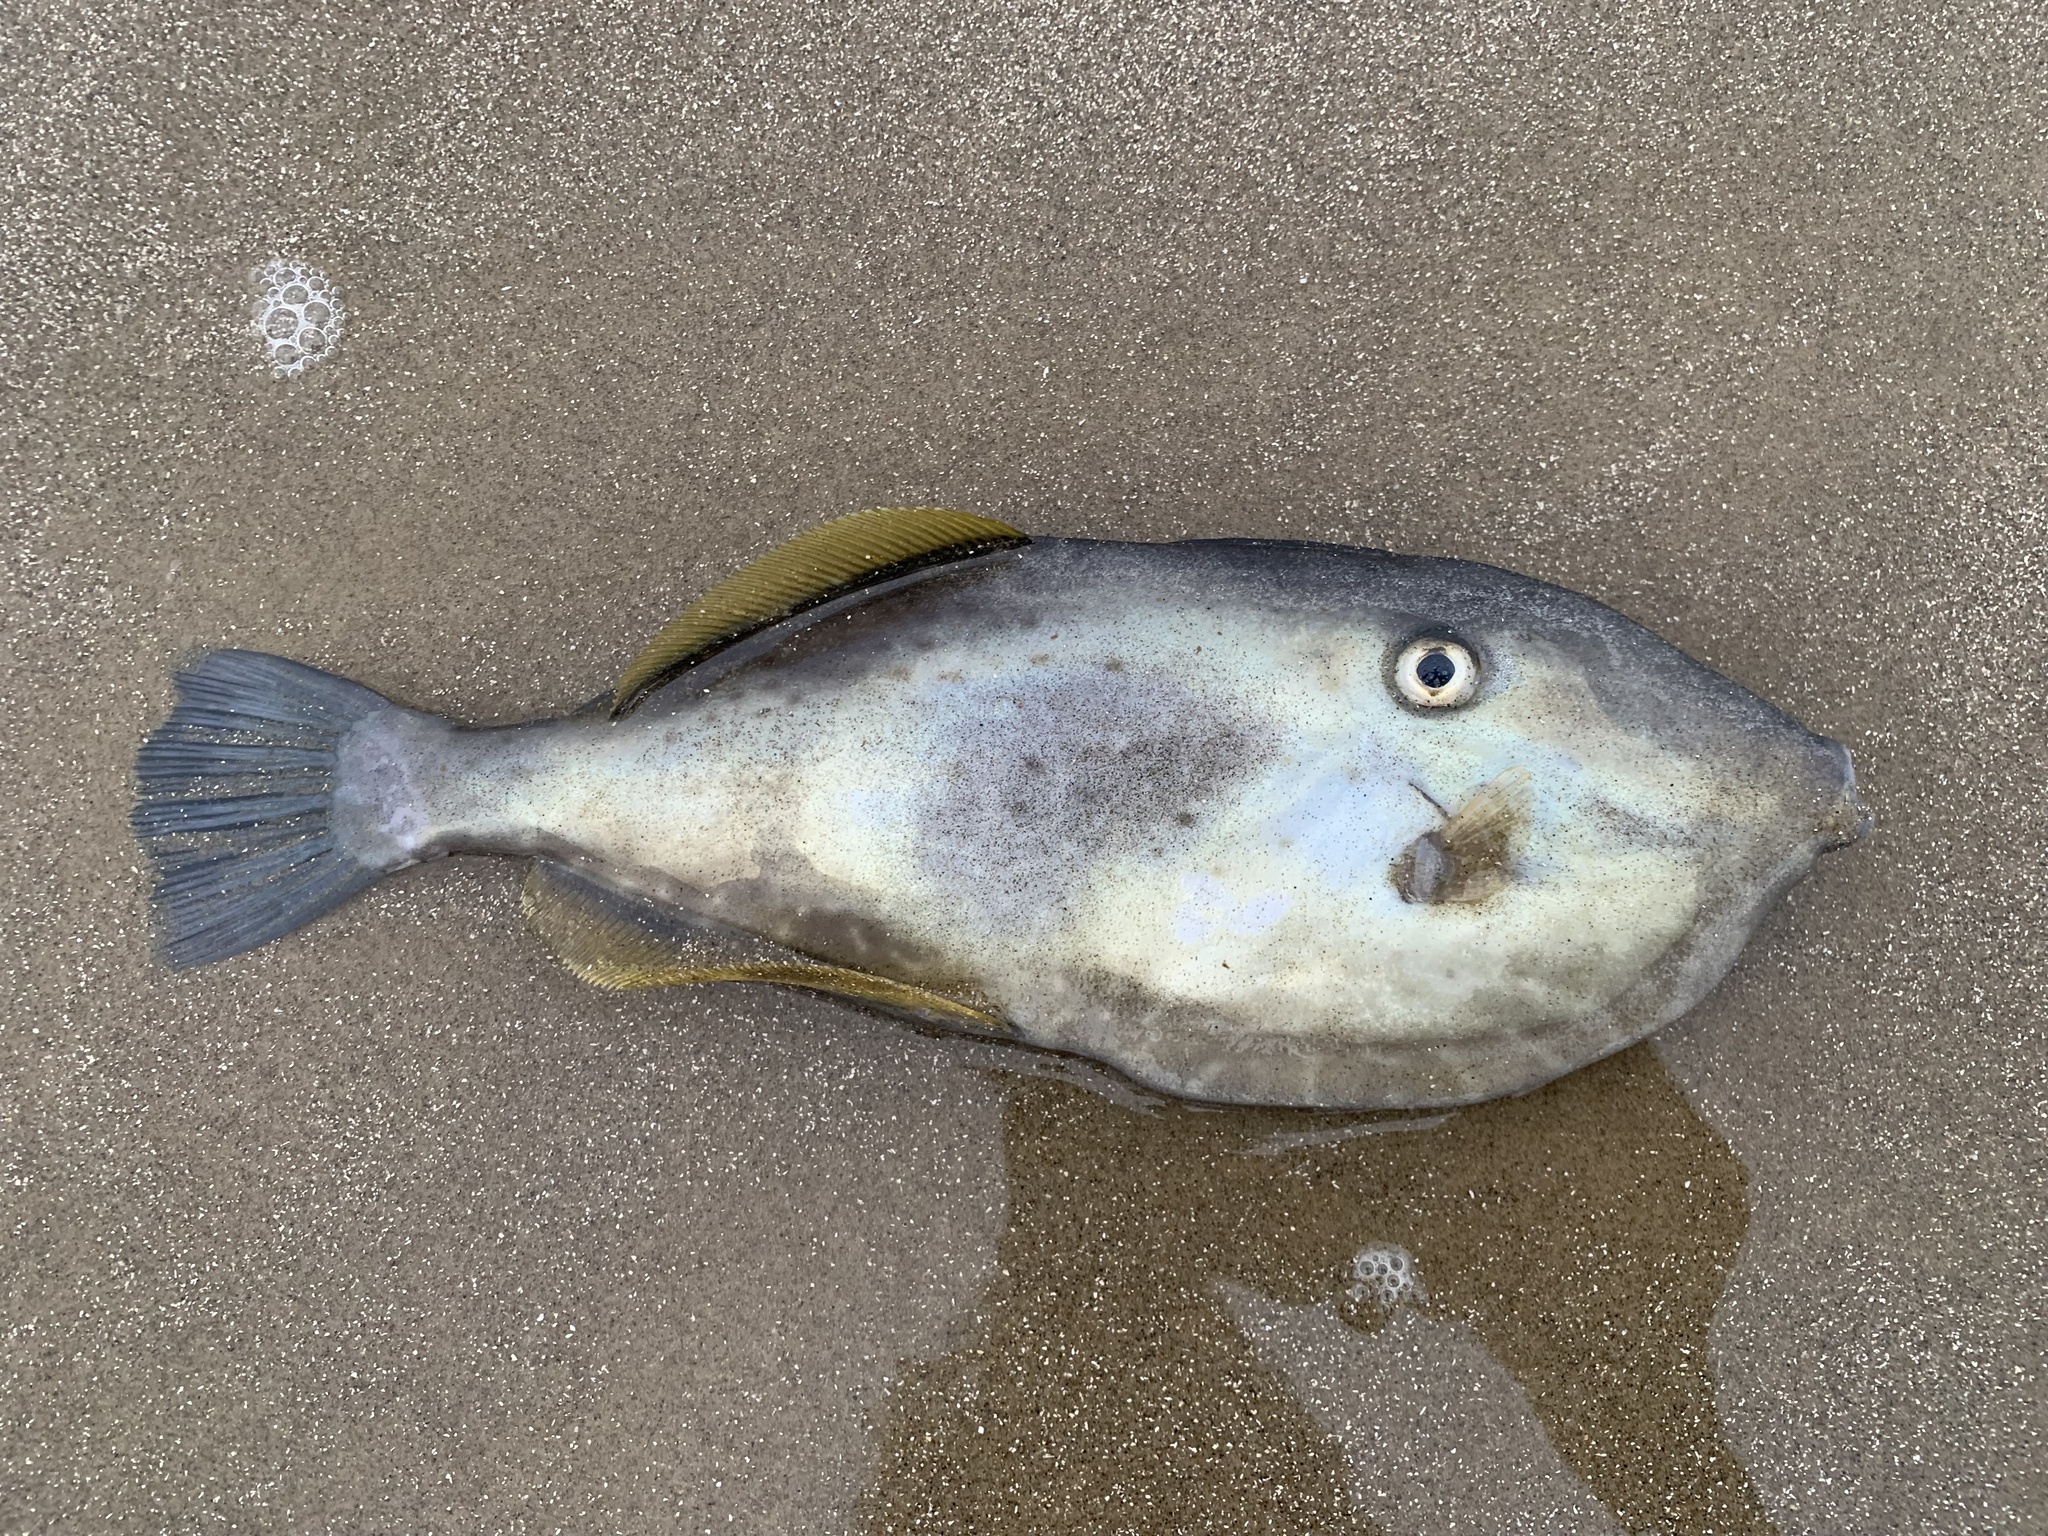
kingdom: Animalia
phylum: Chordata
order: Tetraodontiformes
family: Monacanthidae
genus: Aluterus
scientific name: Aluterus monoceros
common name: Batfish
